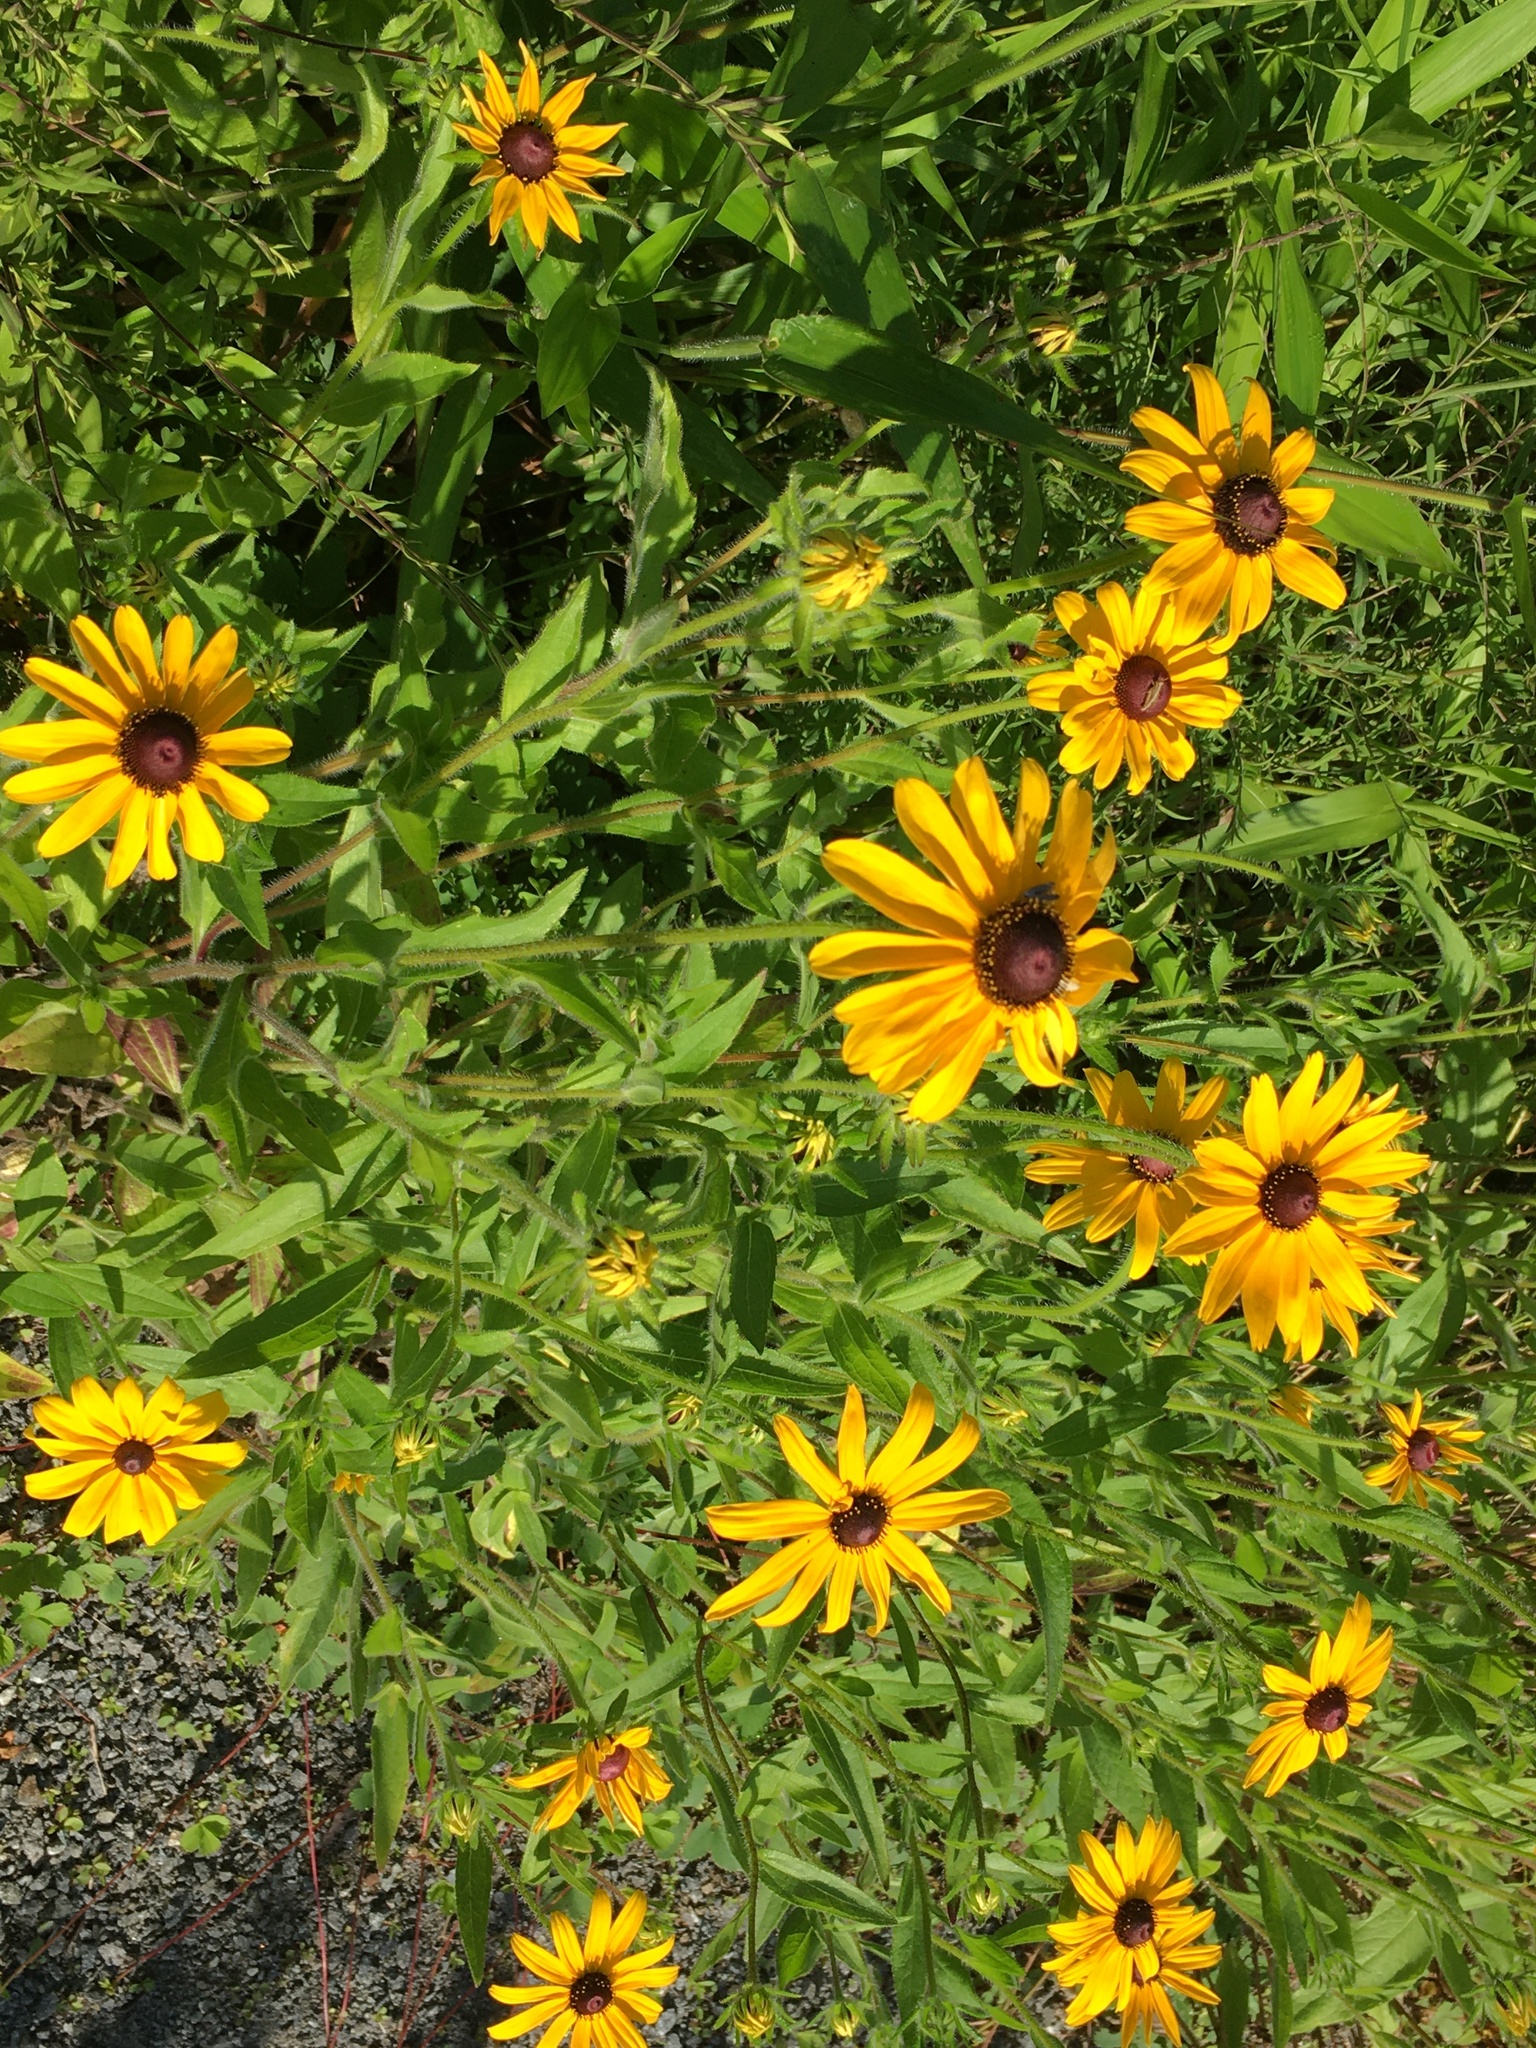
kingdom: Plantae
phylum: Tracheophyta
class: Magnoliopsida
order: Asterales
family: Asteraceae
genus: Rudbeckia
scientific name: Rudbeckia hirta
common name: Black-eyed-susan
